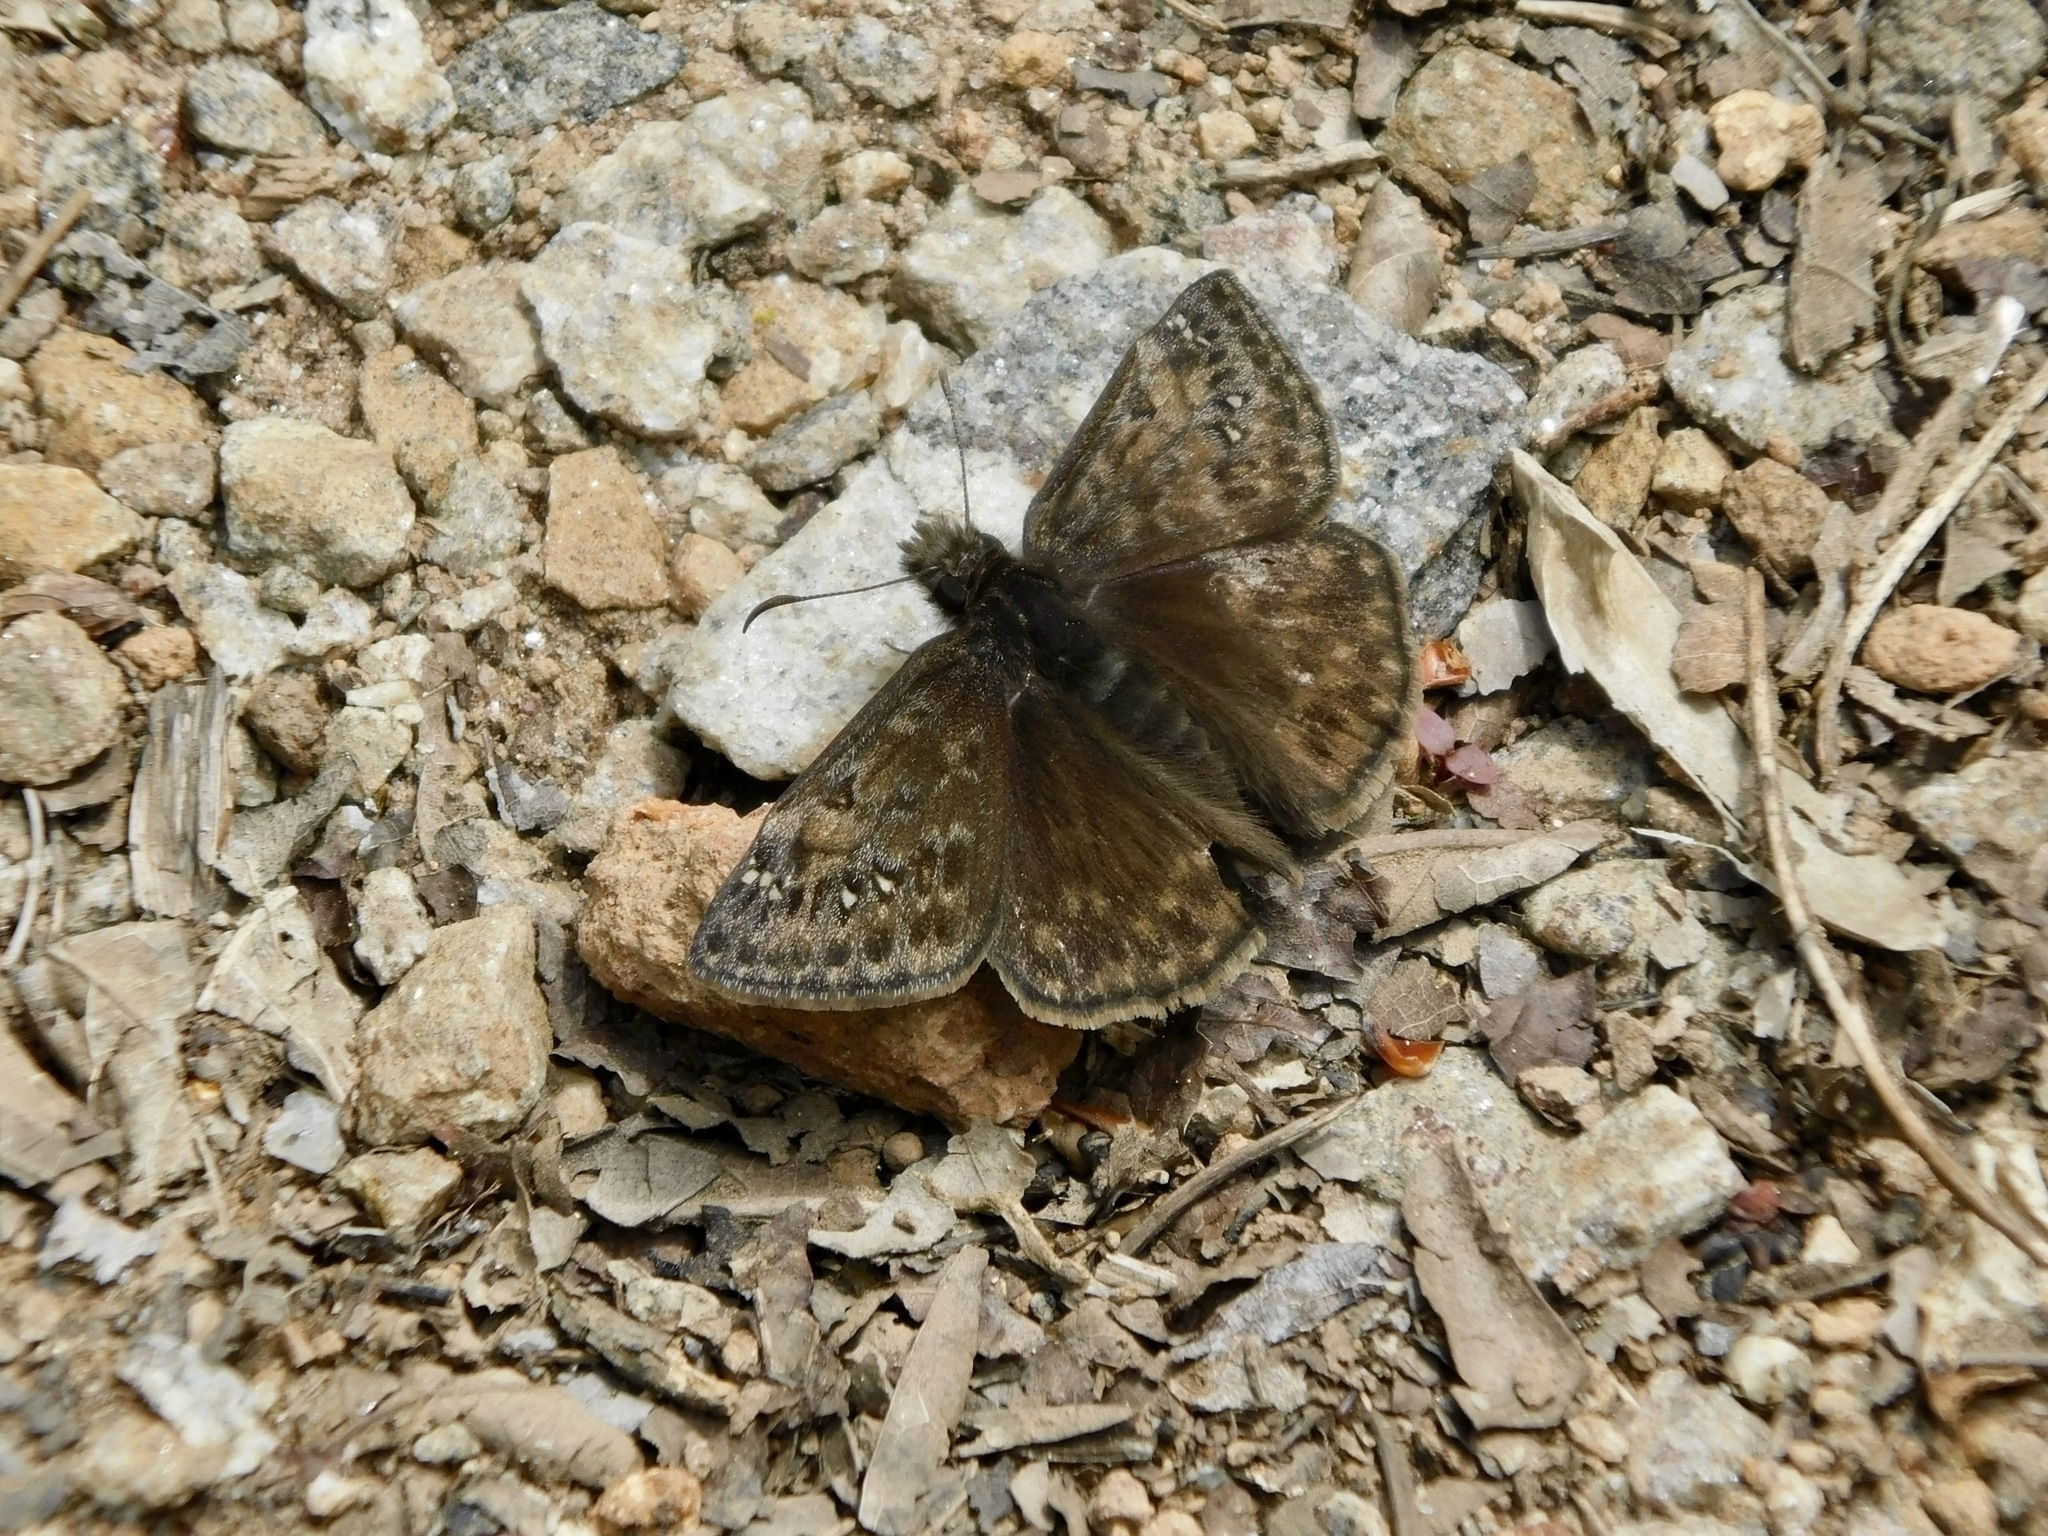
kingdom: Animalia
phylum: Arthropoda
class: Insecta
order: Lepidoptera
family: Hesperiidae
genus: Erynnis
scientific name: Erynnis juvenalis
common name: Juvenal's duskywing
